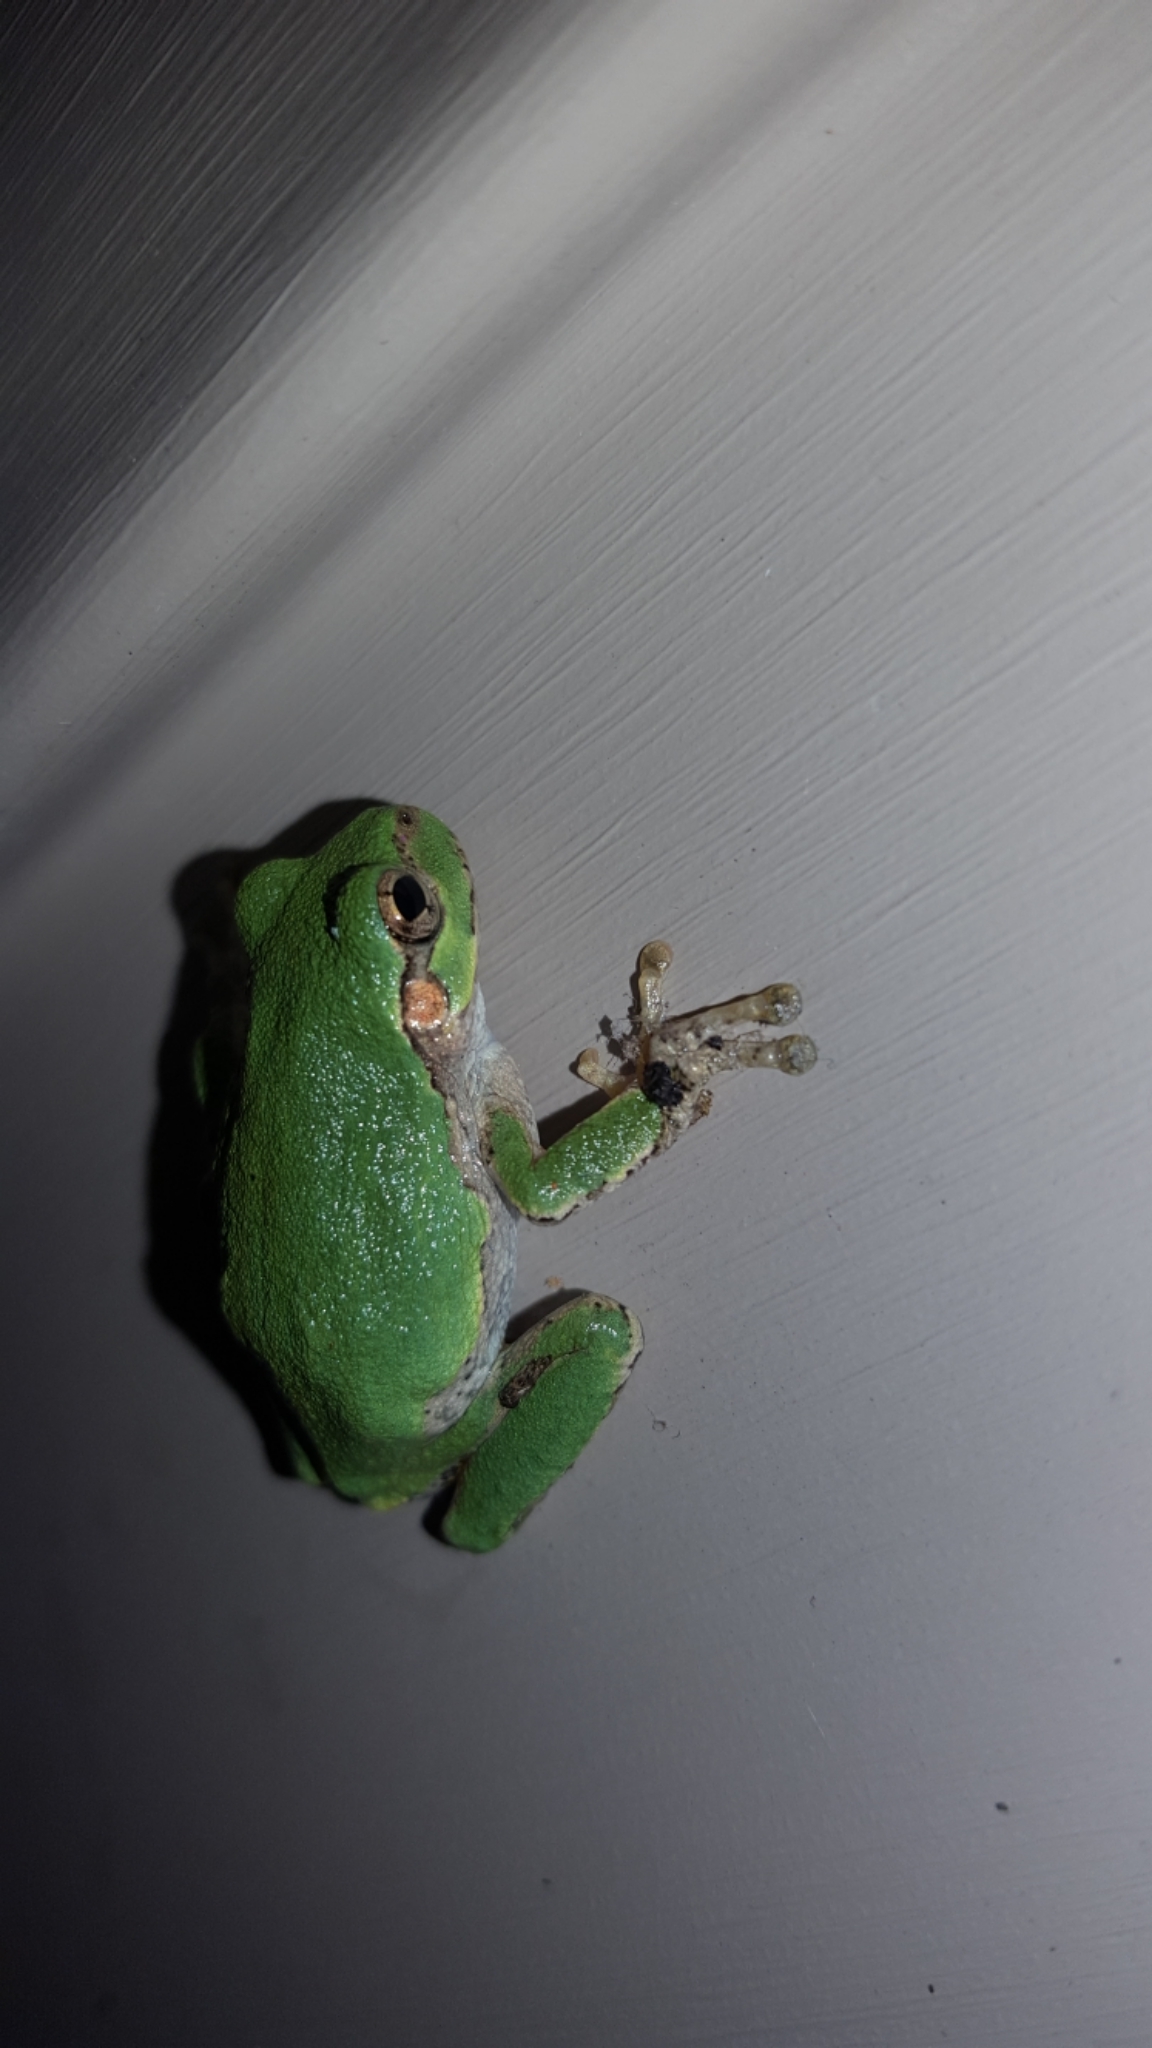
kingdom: Animalia
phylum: Chordata
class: Amphibia
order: Anura
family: Hylidae
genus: Hyla
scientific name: Hyla
